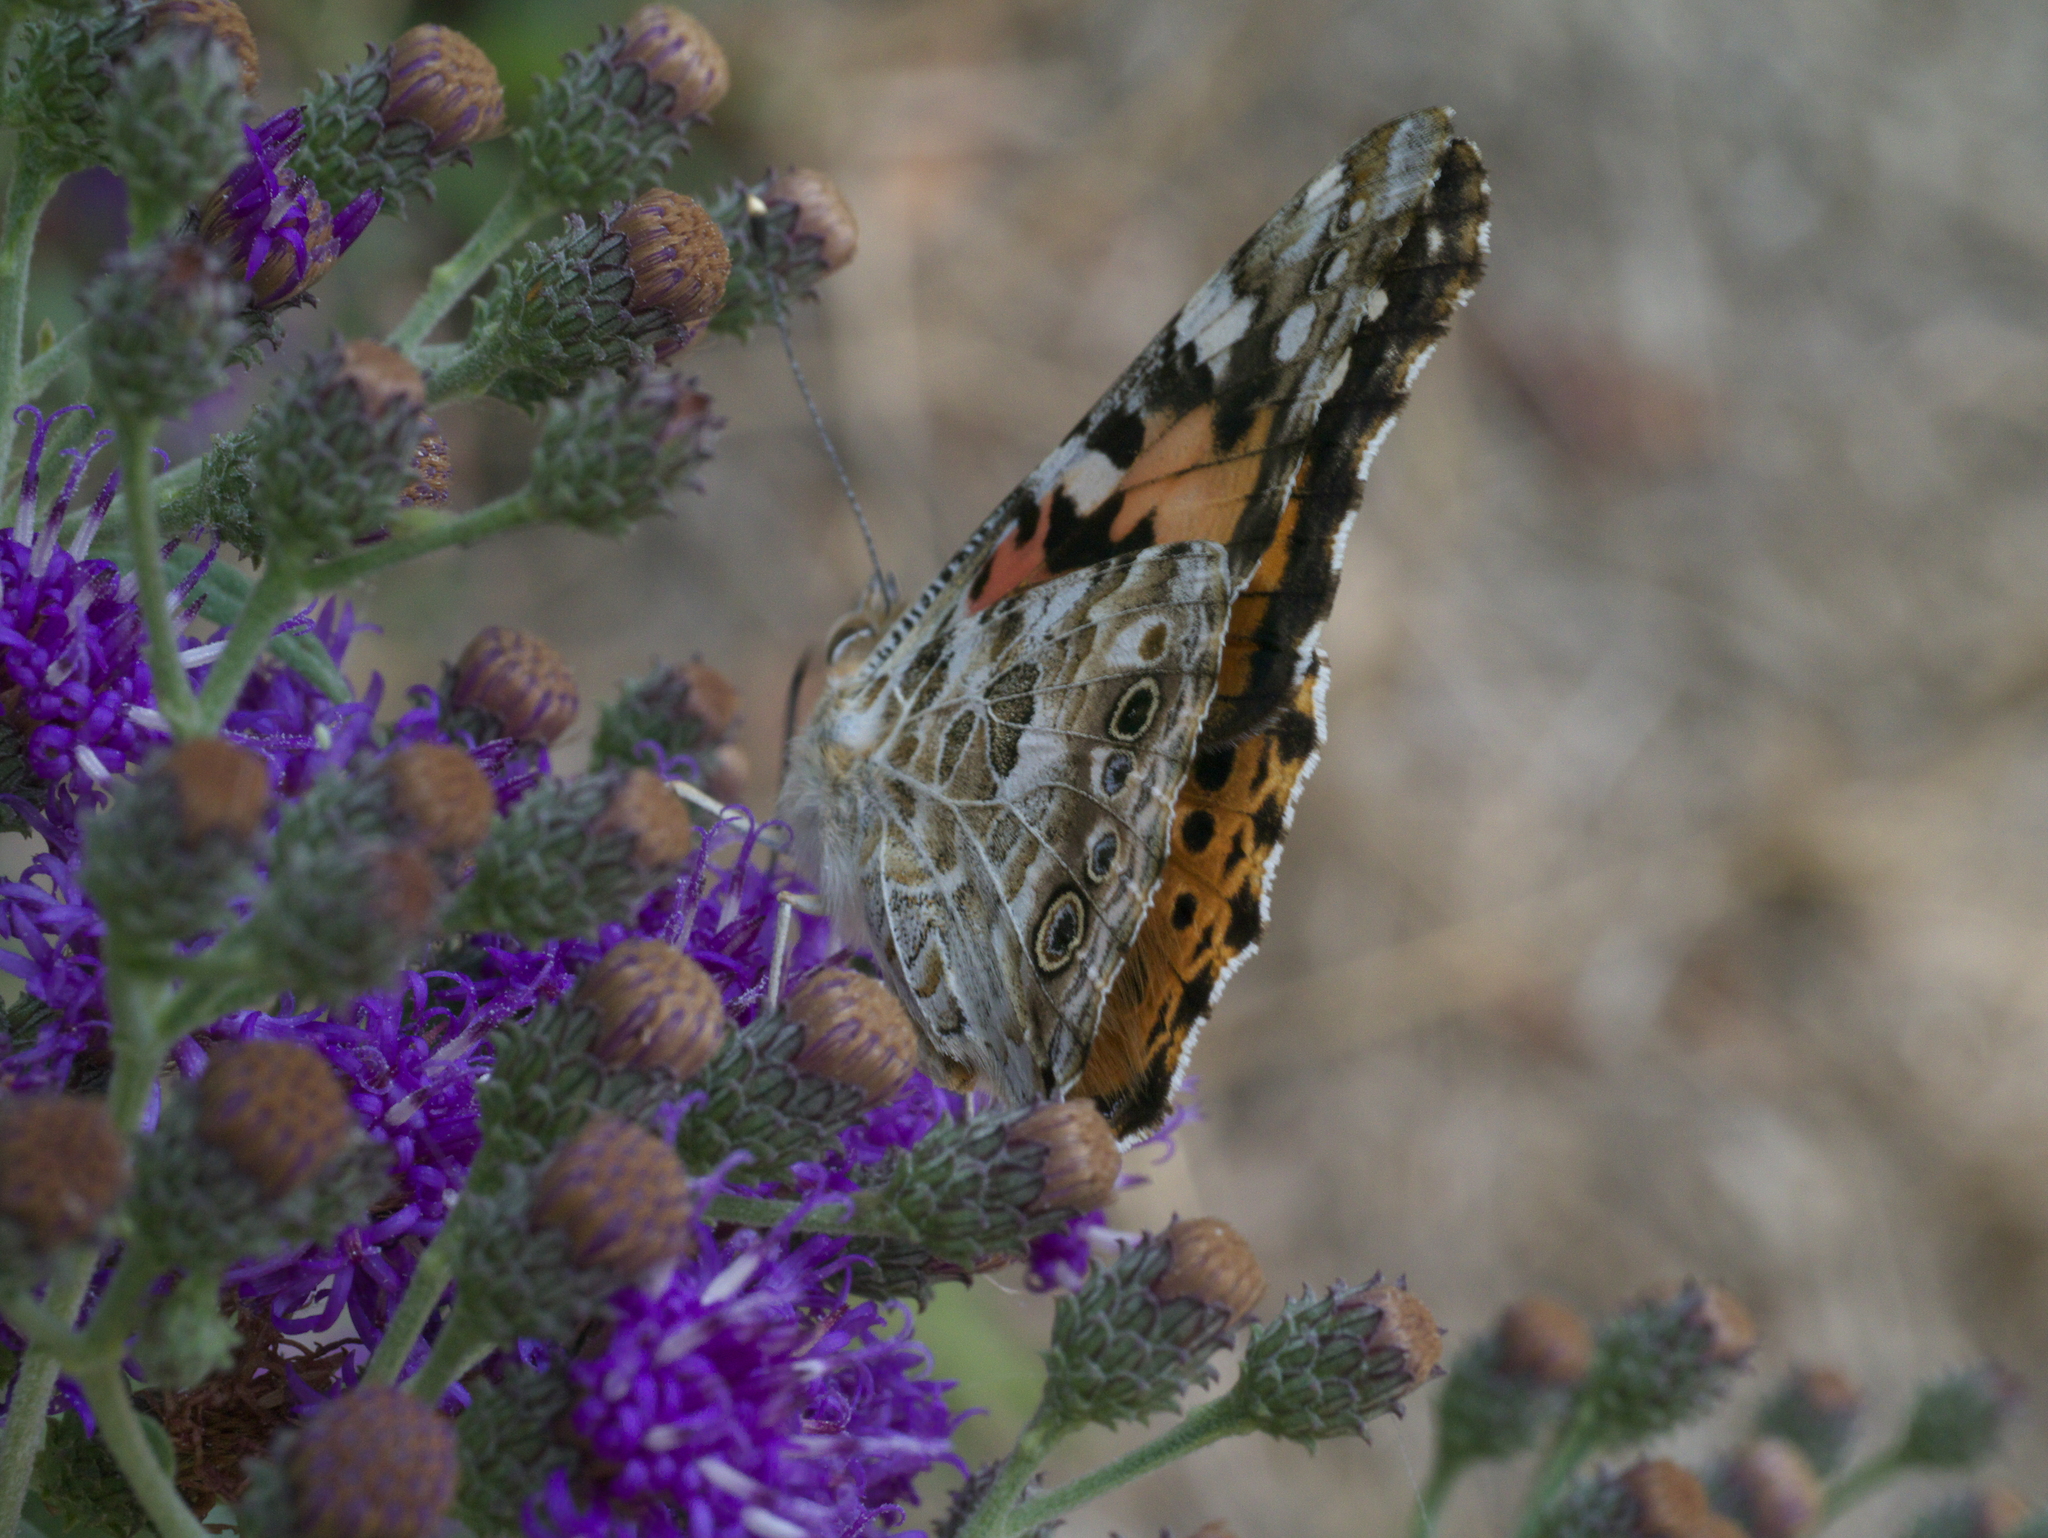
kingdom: Animalia
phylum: Arthropoda
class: Insecta
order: Lepidoptera
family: Nymphalidae
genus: Vanessa
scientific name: Vanessa cardui
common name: Painted lady
